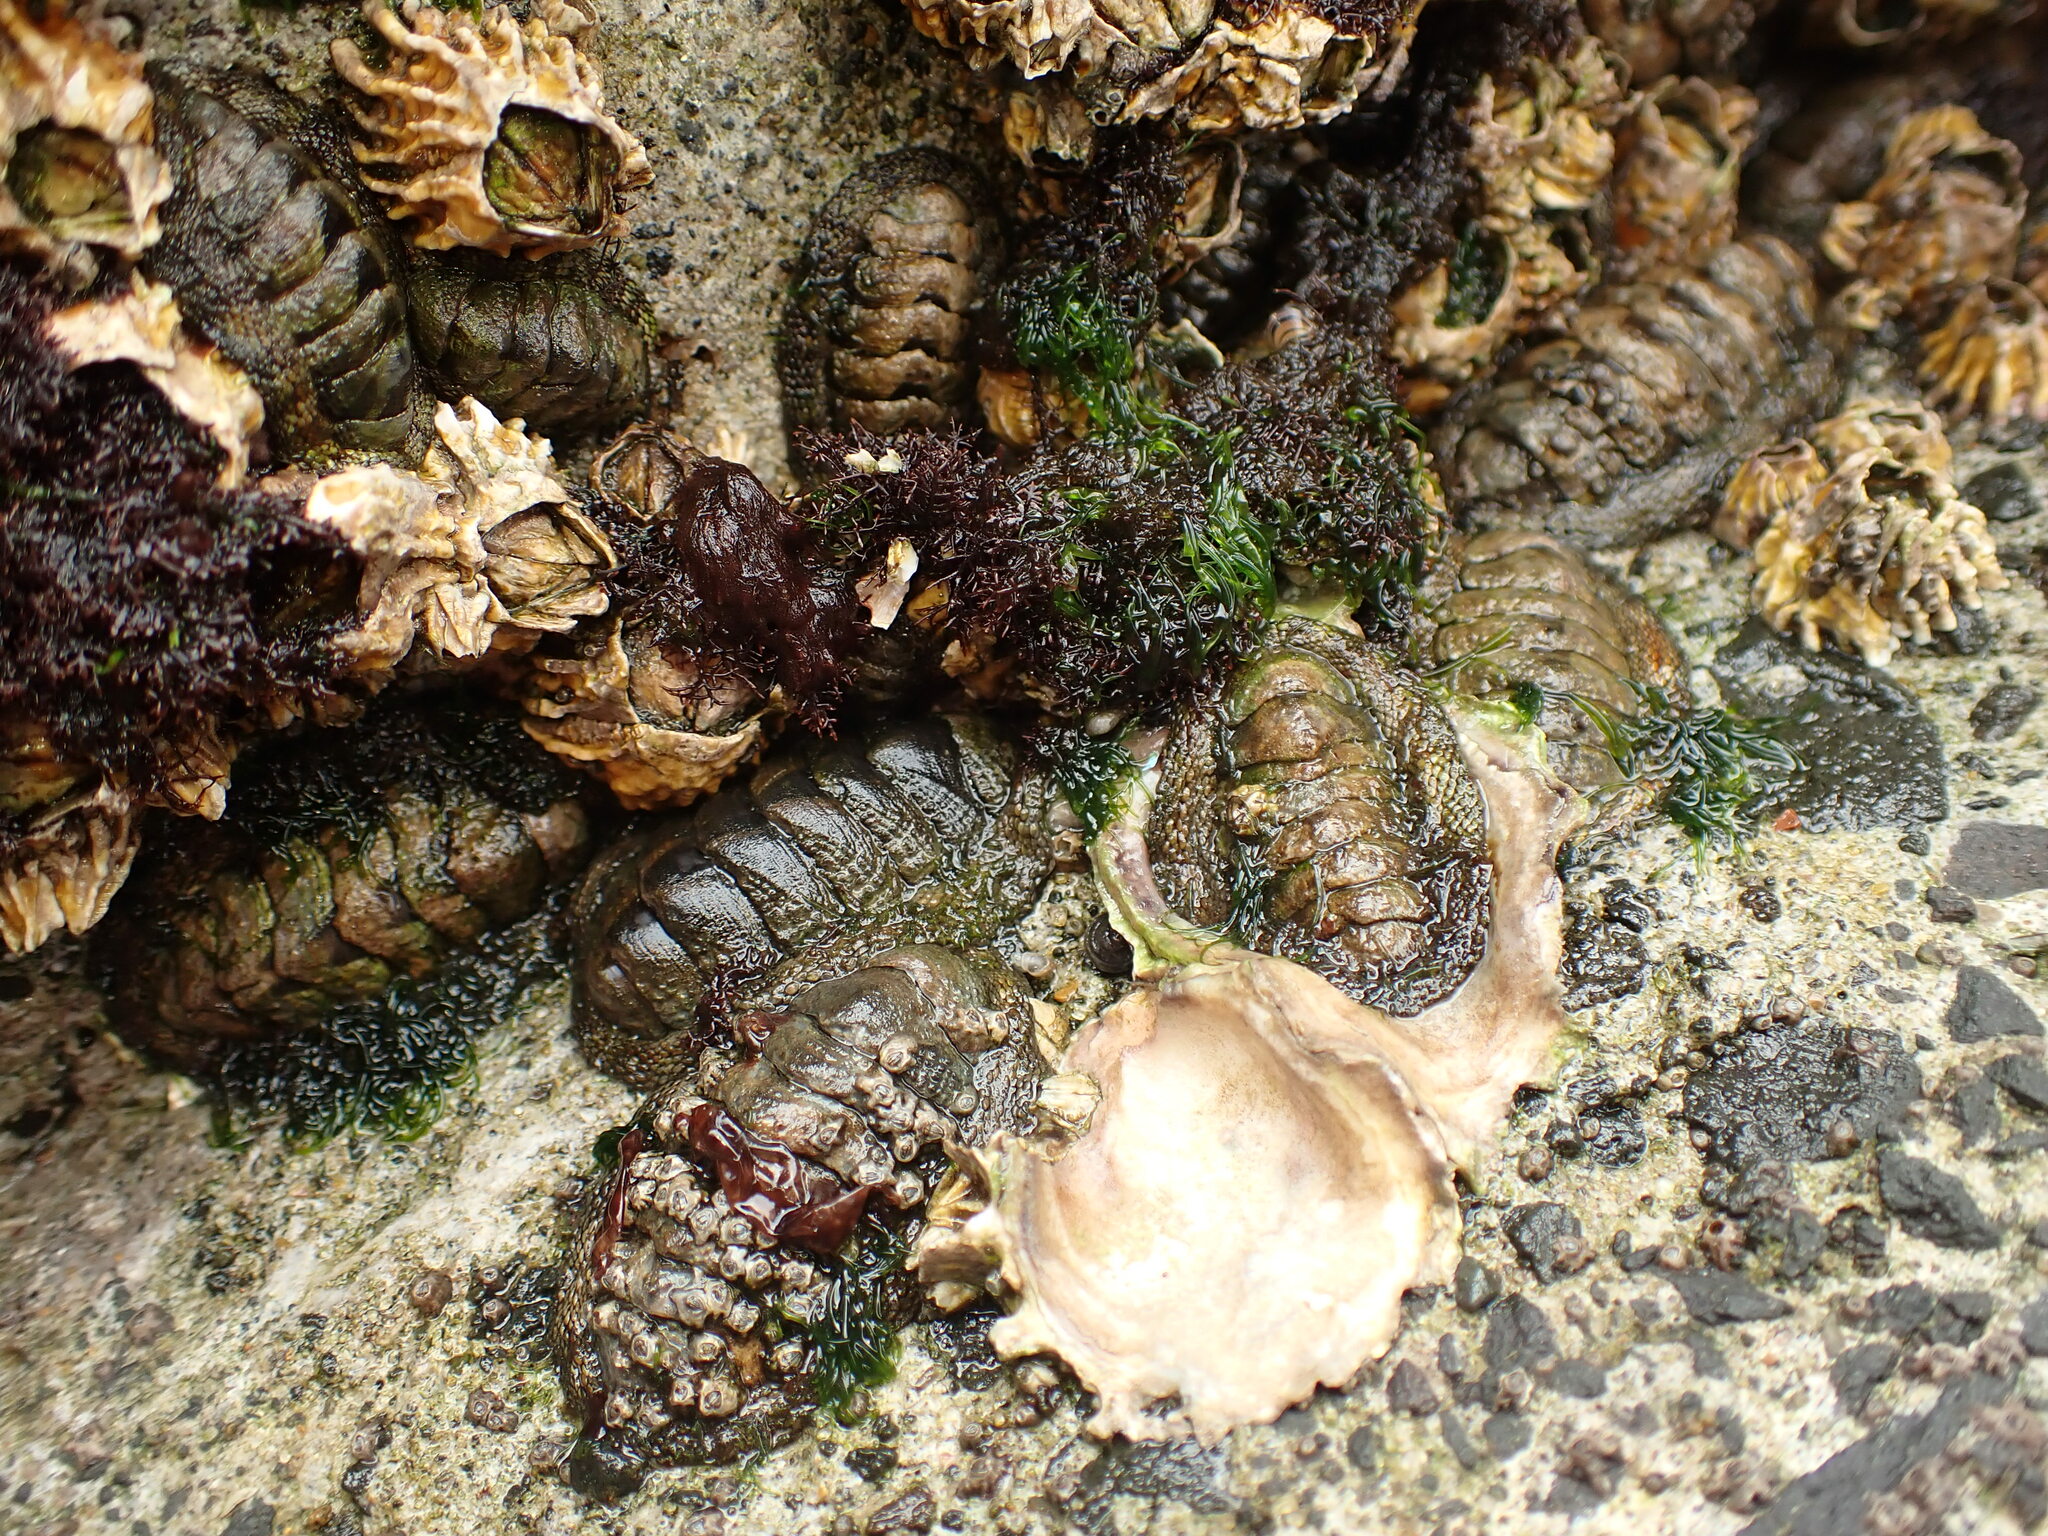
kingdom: Animalia
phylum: Mollusca
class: Polyplacophora
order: Chitonida
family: Chitonidae
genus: Sypharochiton
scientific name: Sypharochiton pelliserpentis
